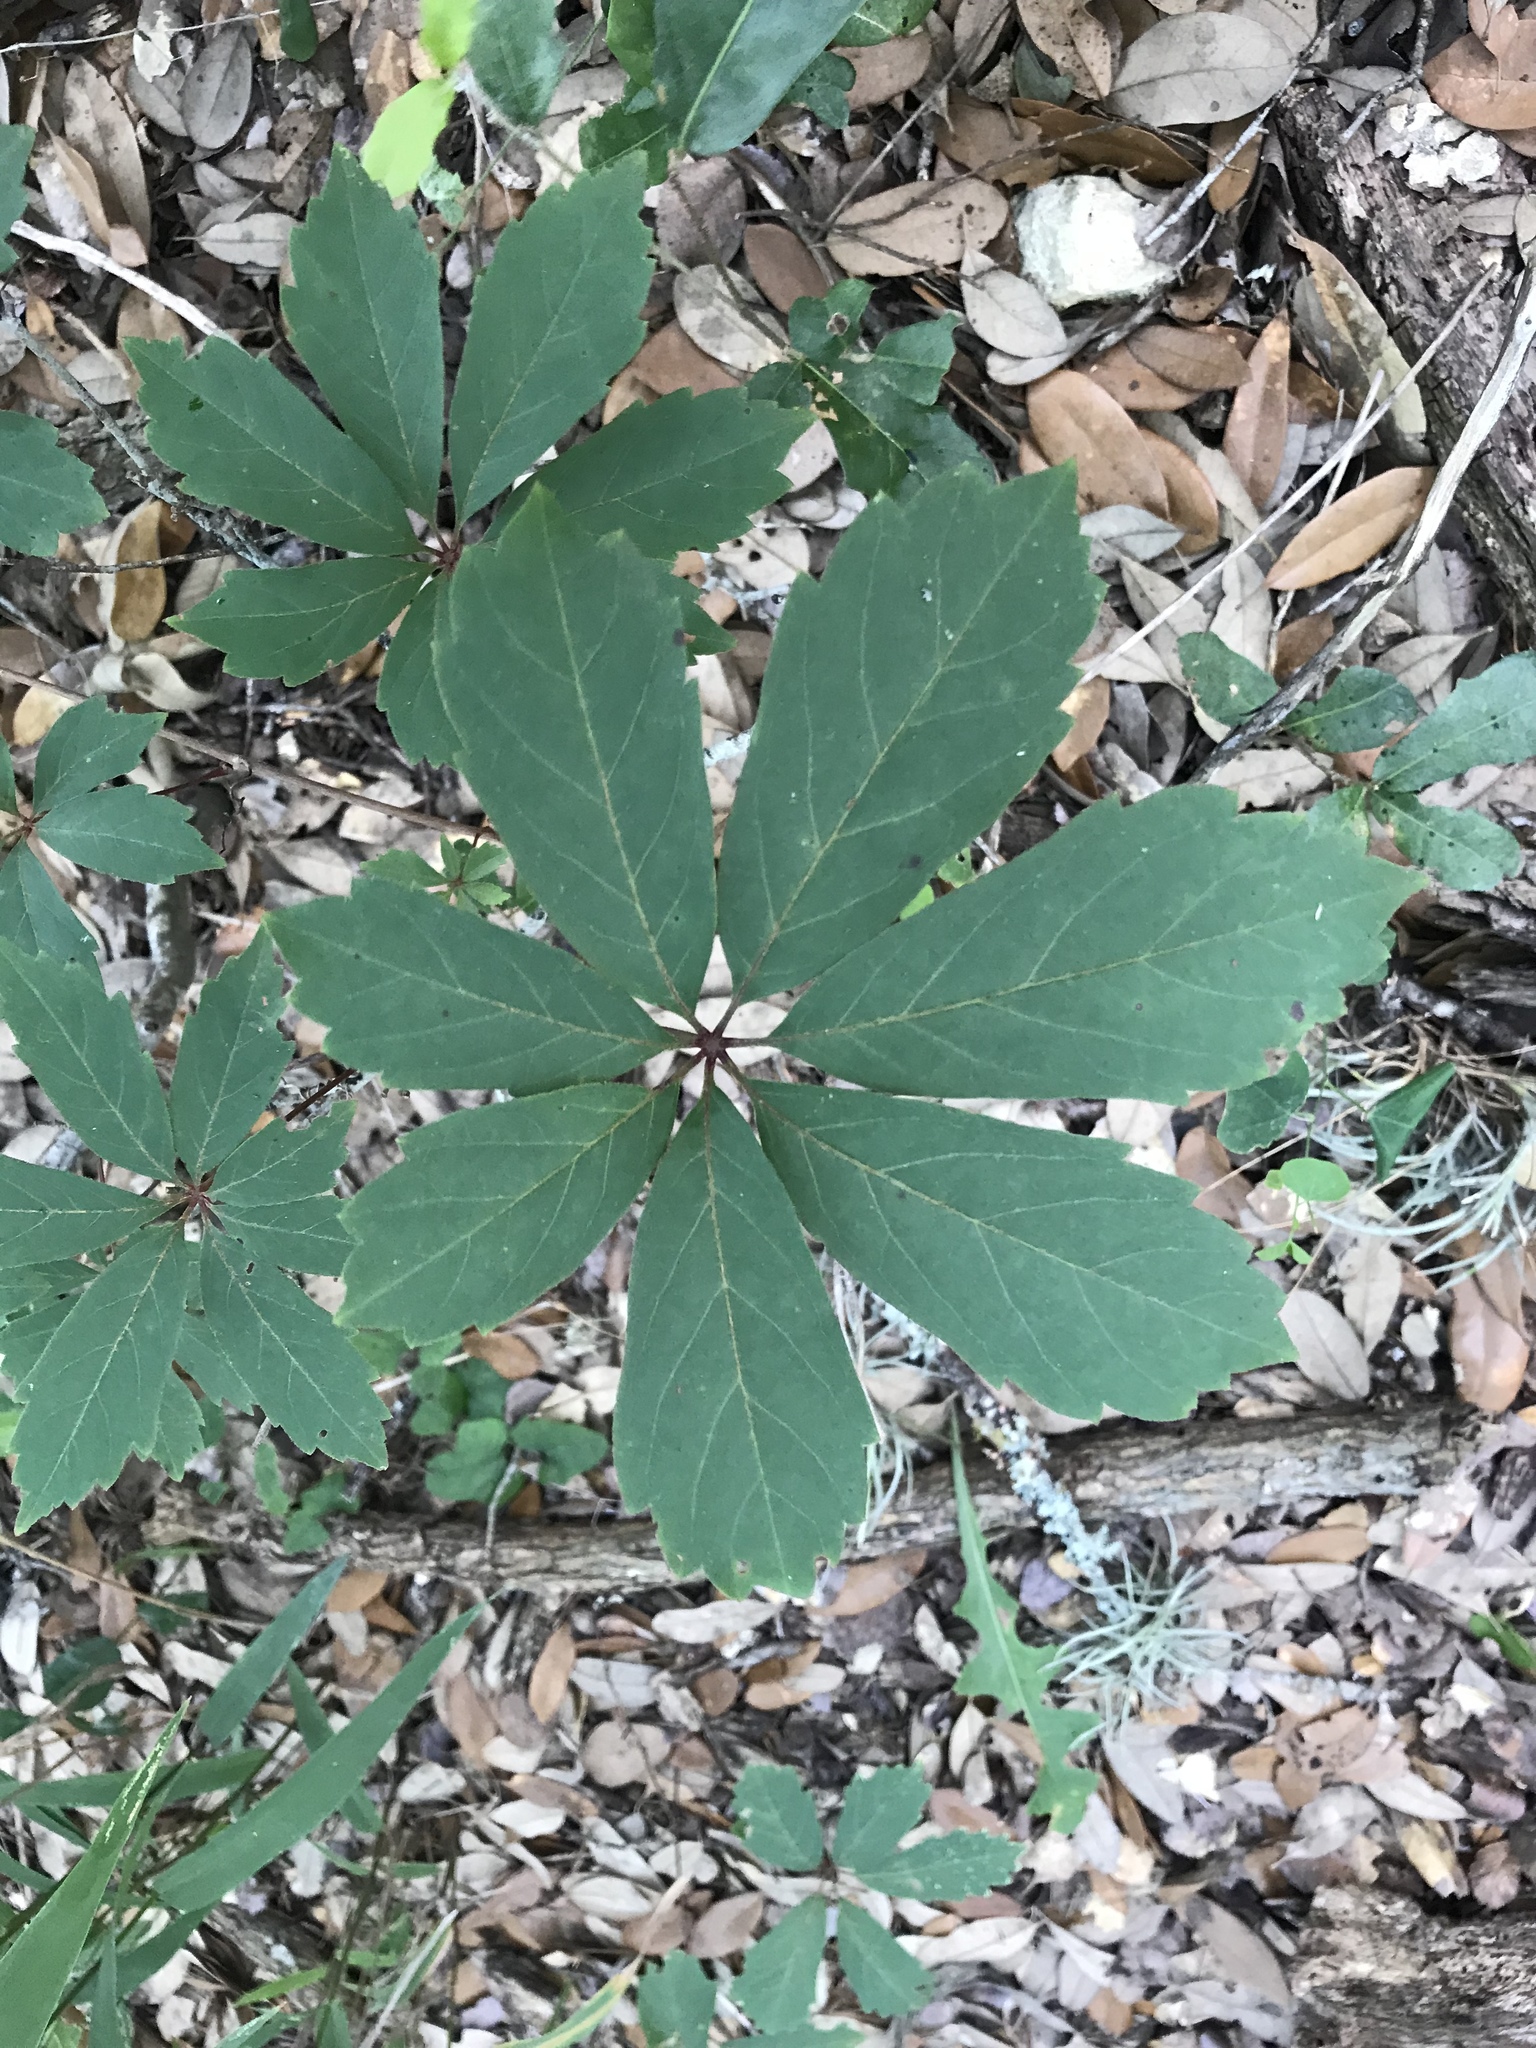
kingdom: Plantae
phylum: Tracheophyta
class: Magnoliopsida
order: Vitales
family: Vitaceae
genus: Parthenocissus
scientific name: Parthenocissus heptaphylla
